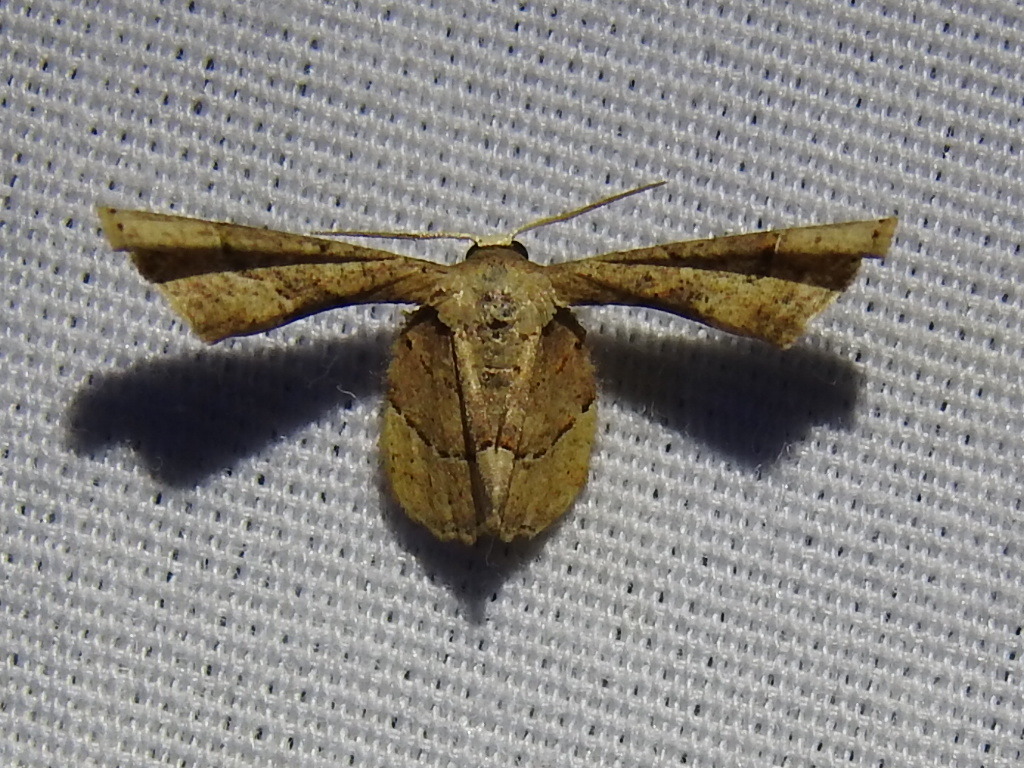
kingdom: Animalia
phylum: Arthropoda
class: Insecta
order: Lepidoptera
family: Uraniidae
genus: Antiplecta
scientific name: Antiplecta triangularis
